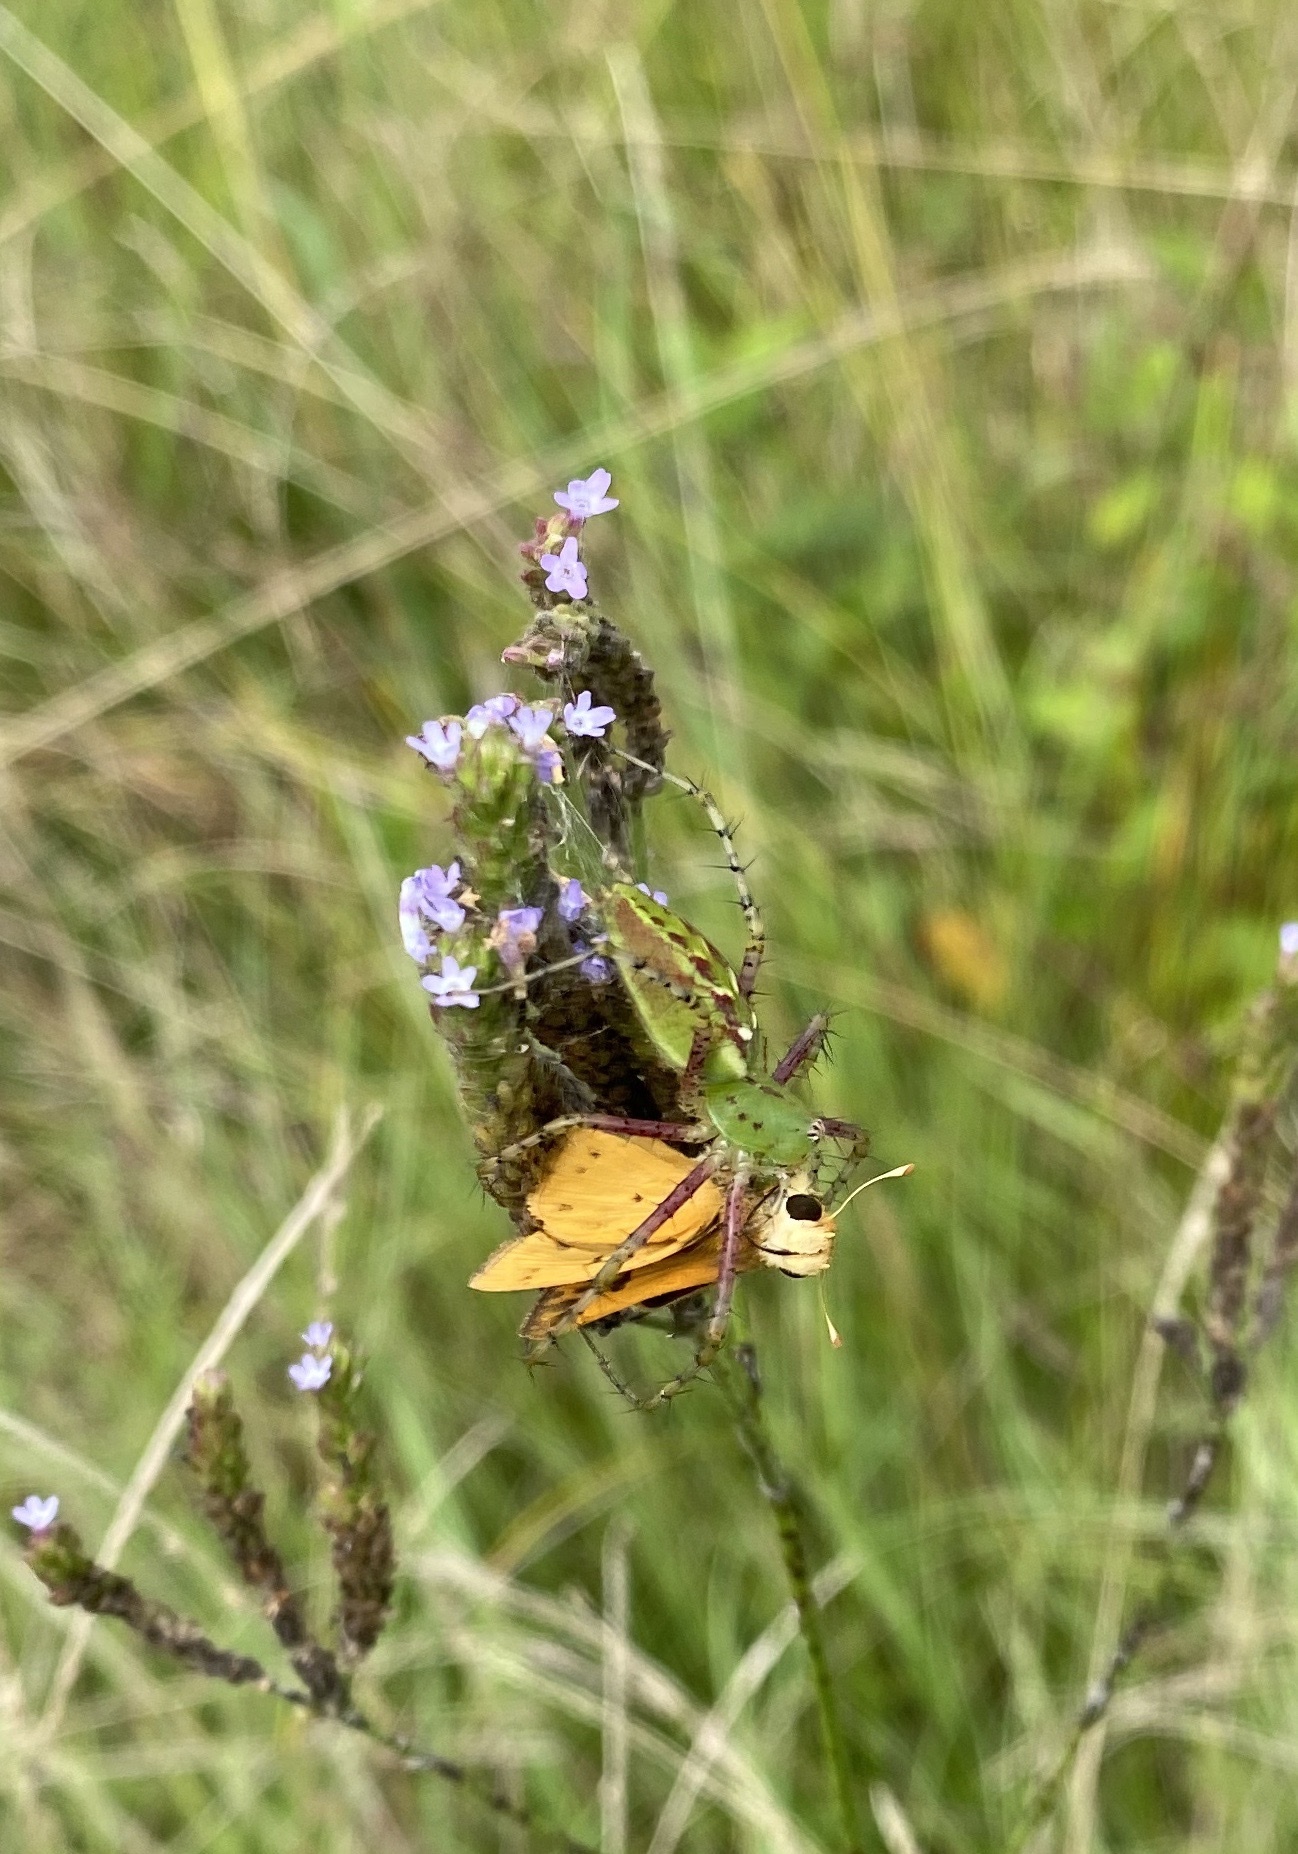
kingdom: Animalia
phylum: Arthropoda
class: Arachnida
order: Araneae
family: Oxyopidae
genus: Peucetia
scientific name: Peucetia viridans
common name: Lynx spiders
